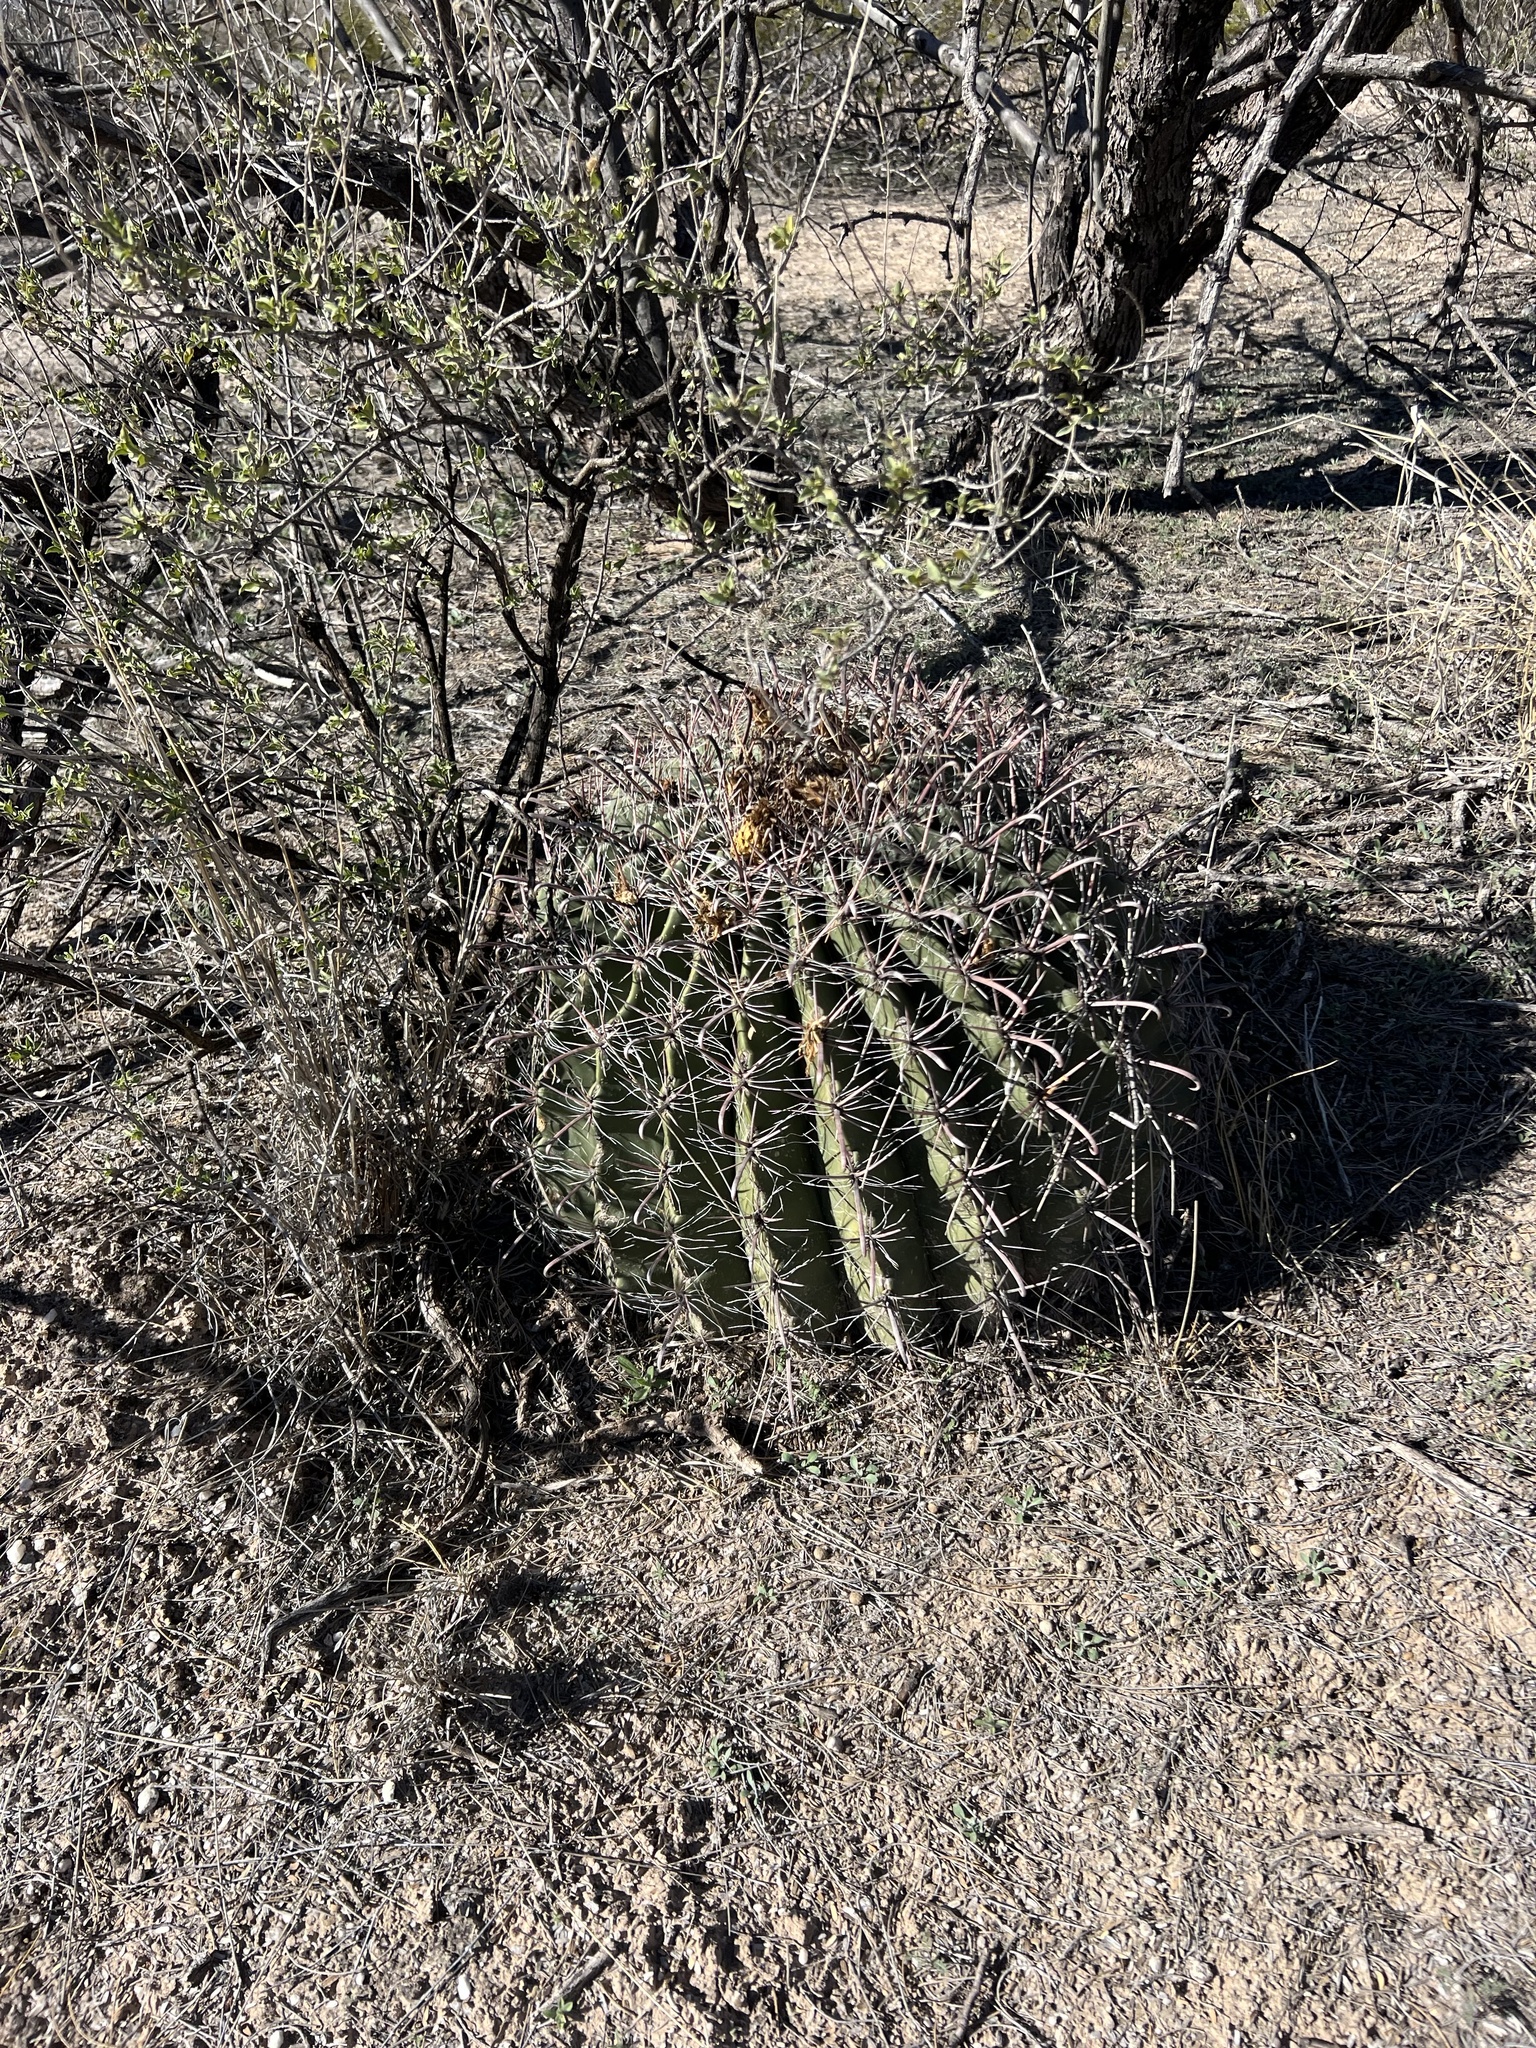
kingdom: Plantae
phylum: Tracheophyta
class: Magnoliopsida
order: Caryophyllales
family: Cactaceae
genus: Ferocactus
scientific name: Ferocactus wislizeni
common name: Candy barrel cactus
